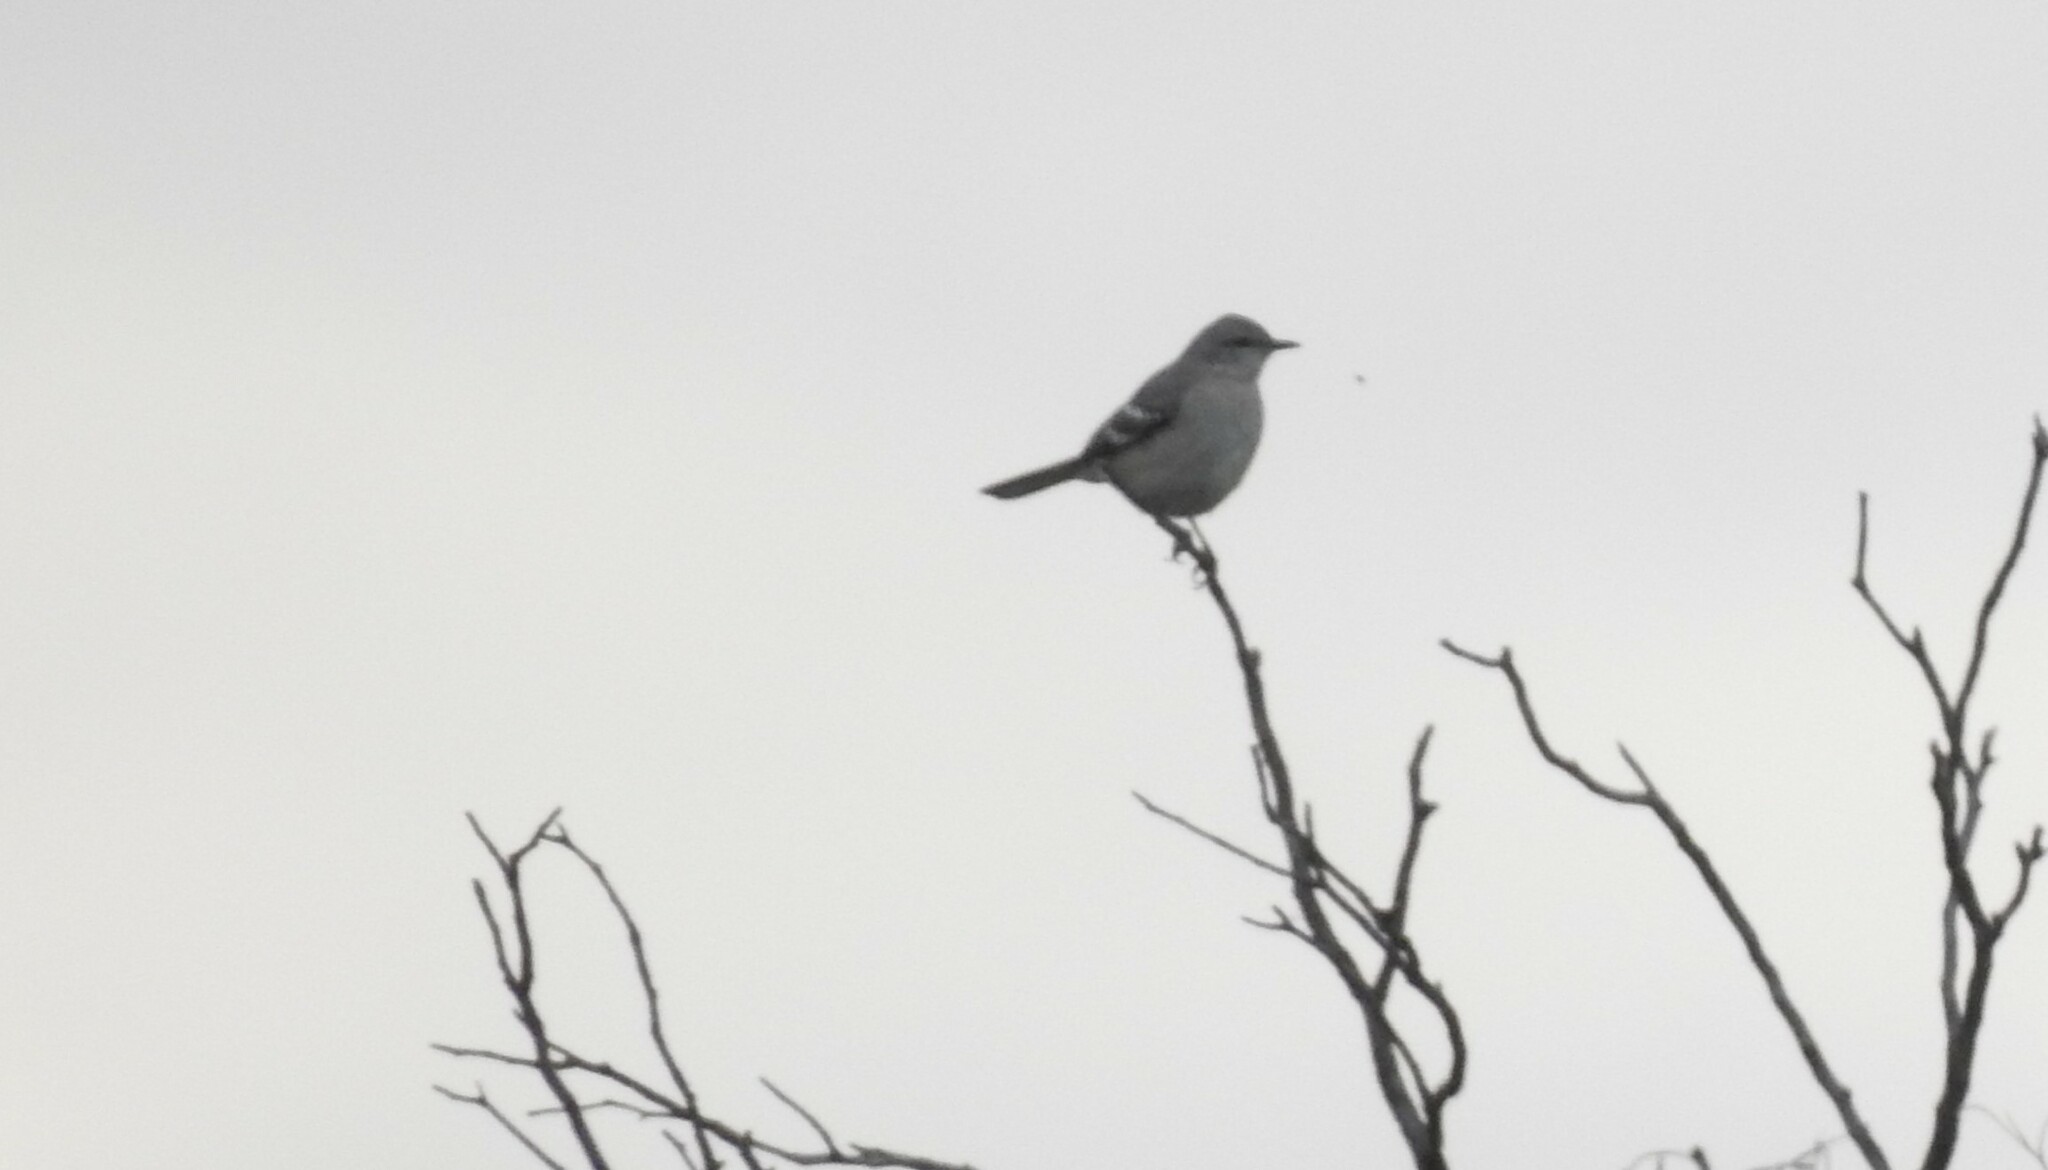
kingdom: Animalia
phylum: Chordata
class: Aves
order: Passeriformes
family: Mimidae
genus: Mimus
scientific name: Mimus polyglottos
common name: Northern mockingbird
